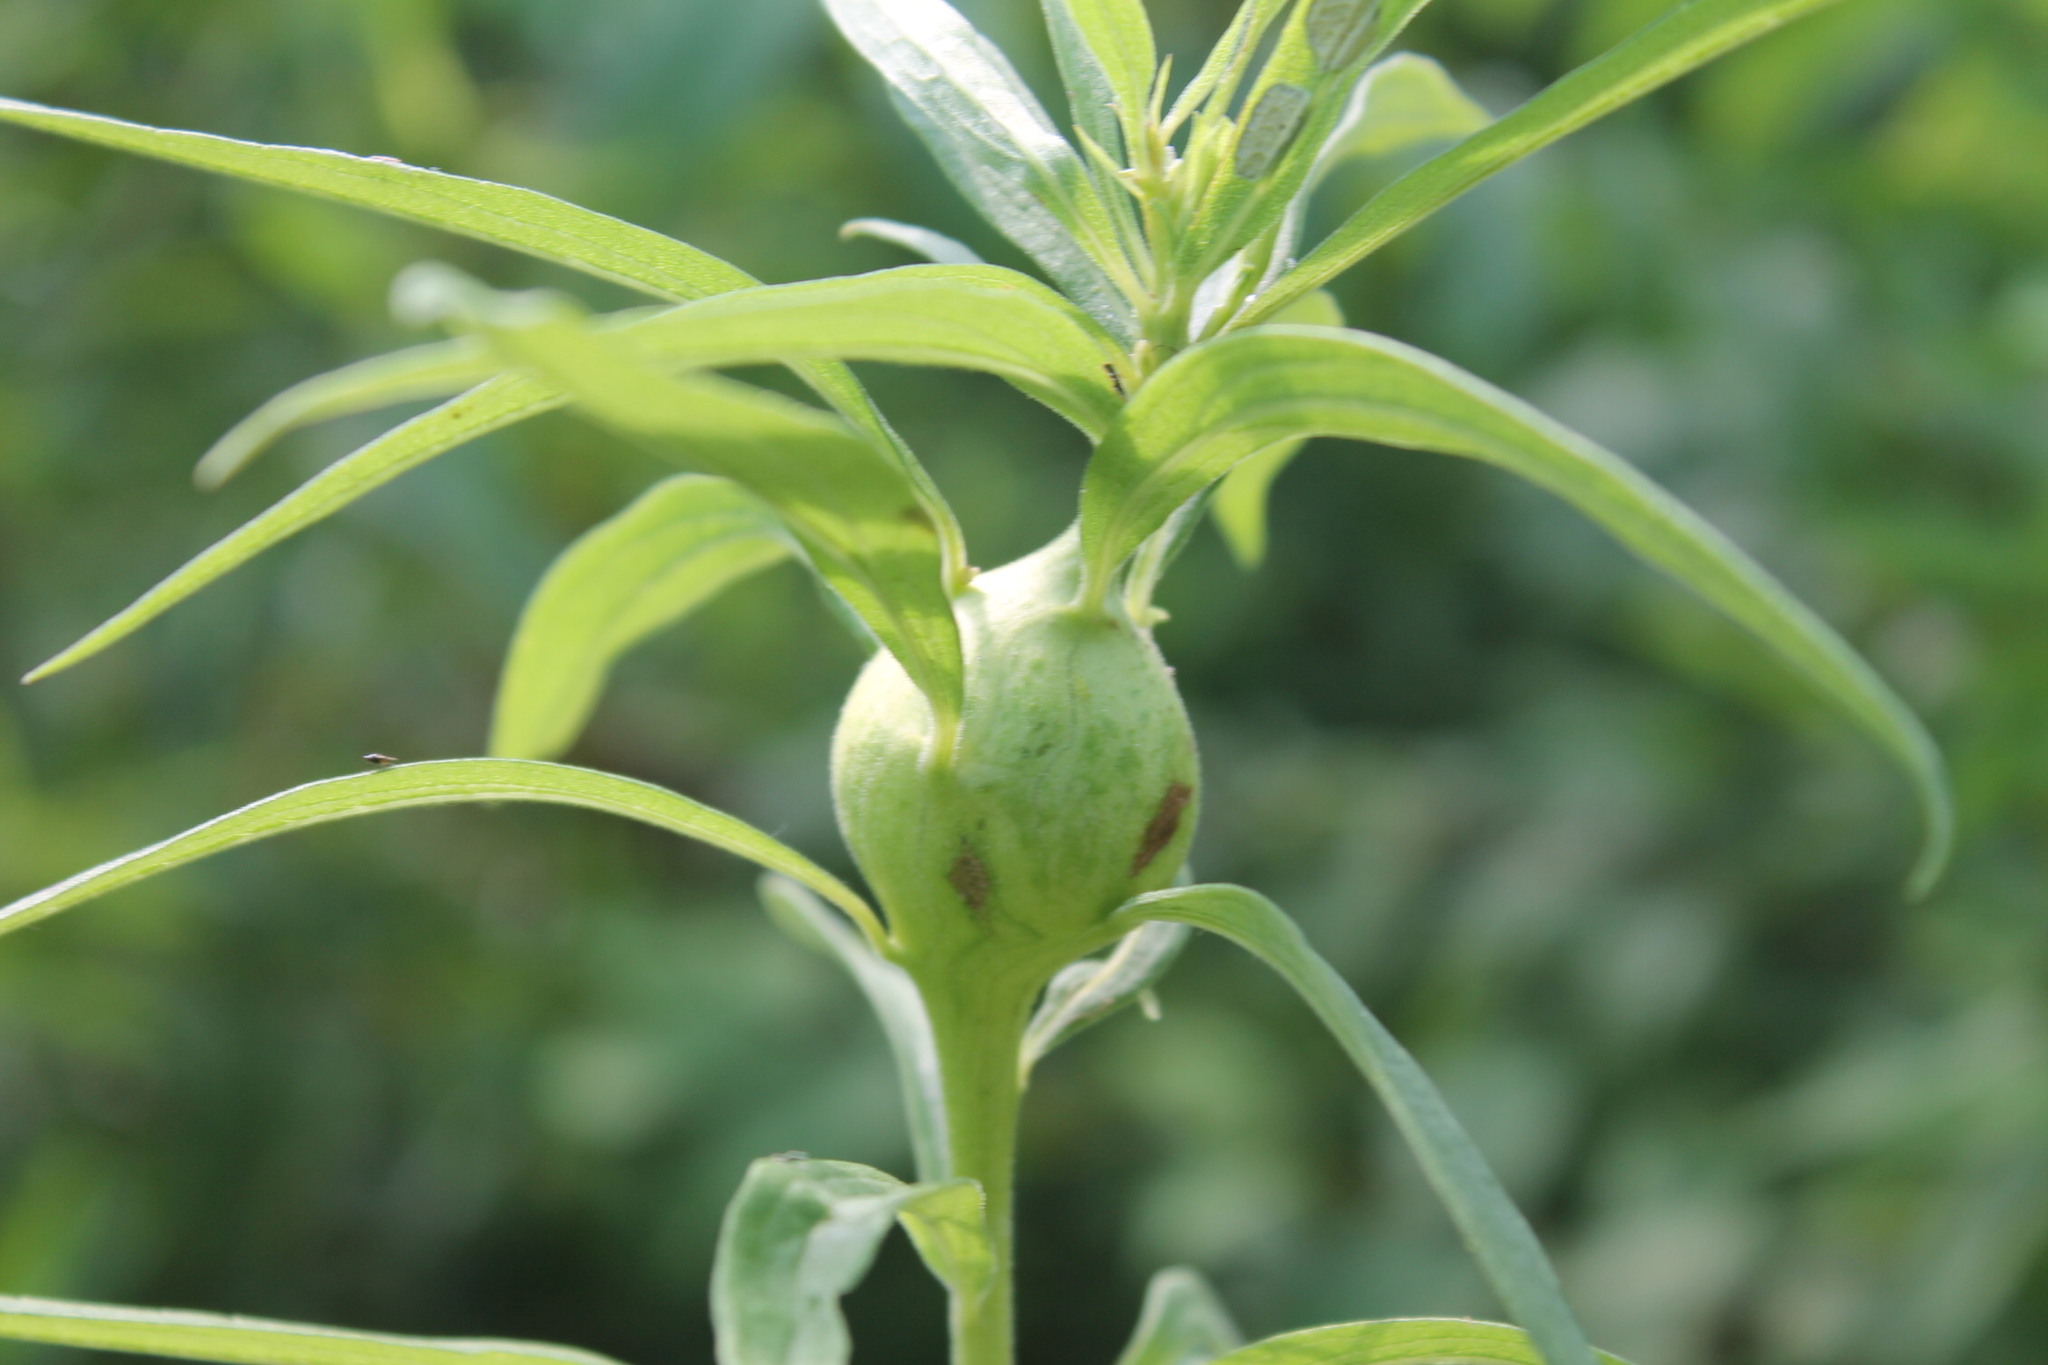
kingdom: Animalia
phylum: Arthropoda
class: Insecta
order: Diptera
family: Tephritidae
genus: Eurosta
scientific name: Eurosta solidaginis
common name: Goldenrod gall fly
